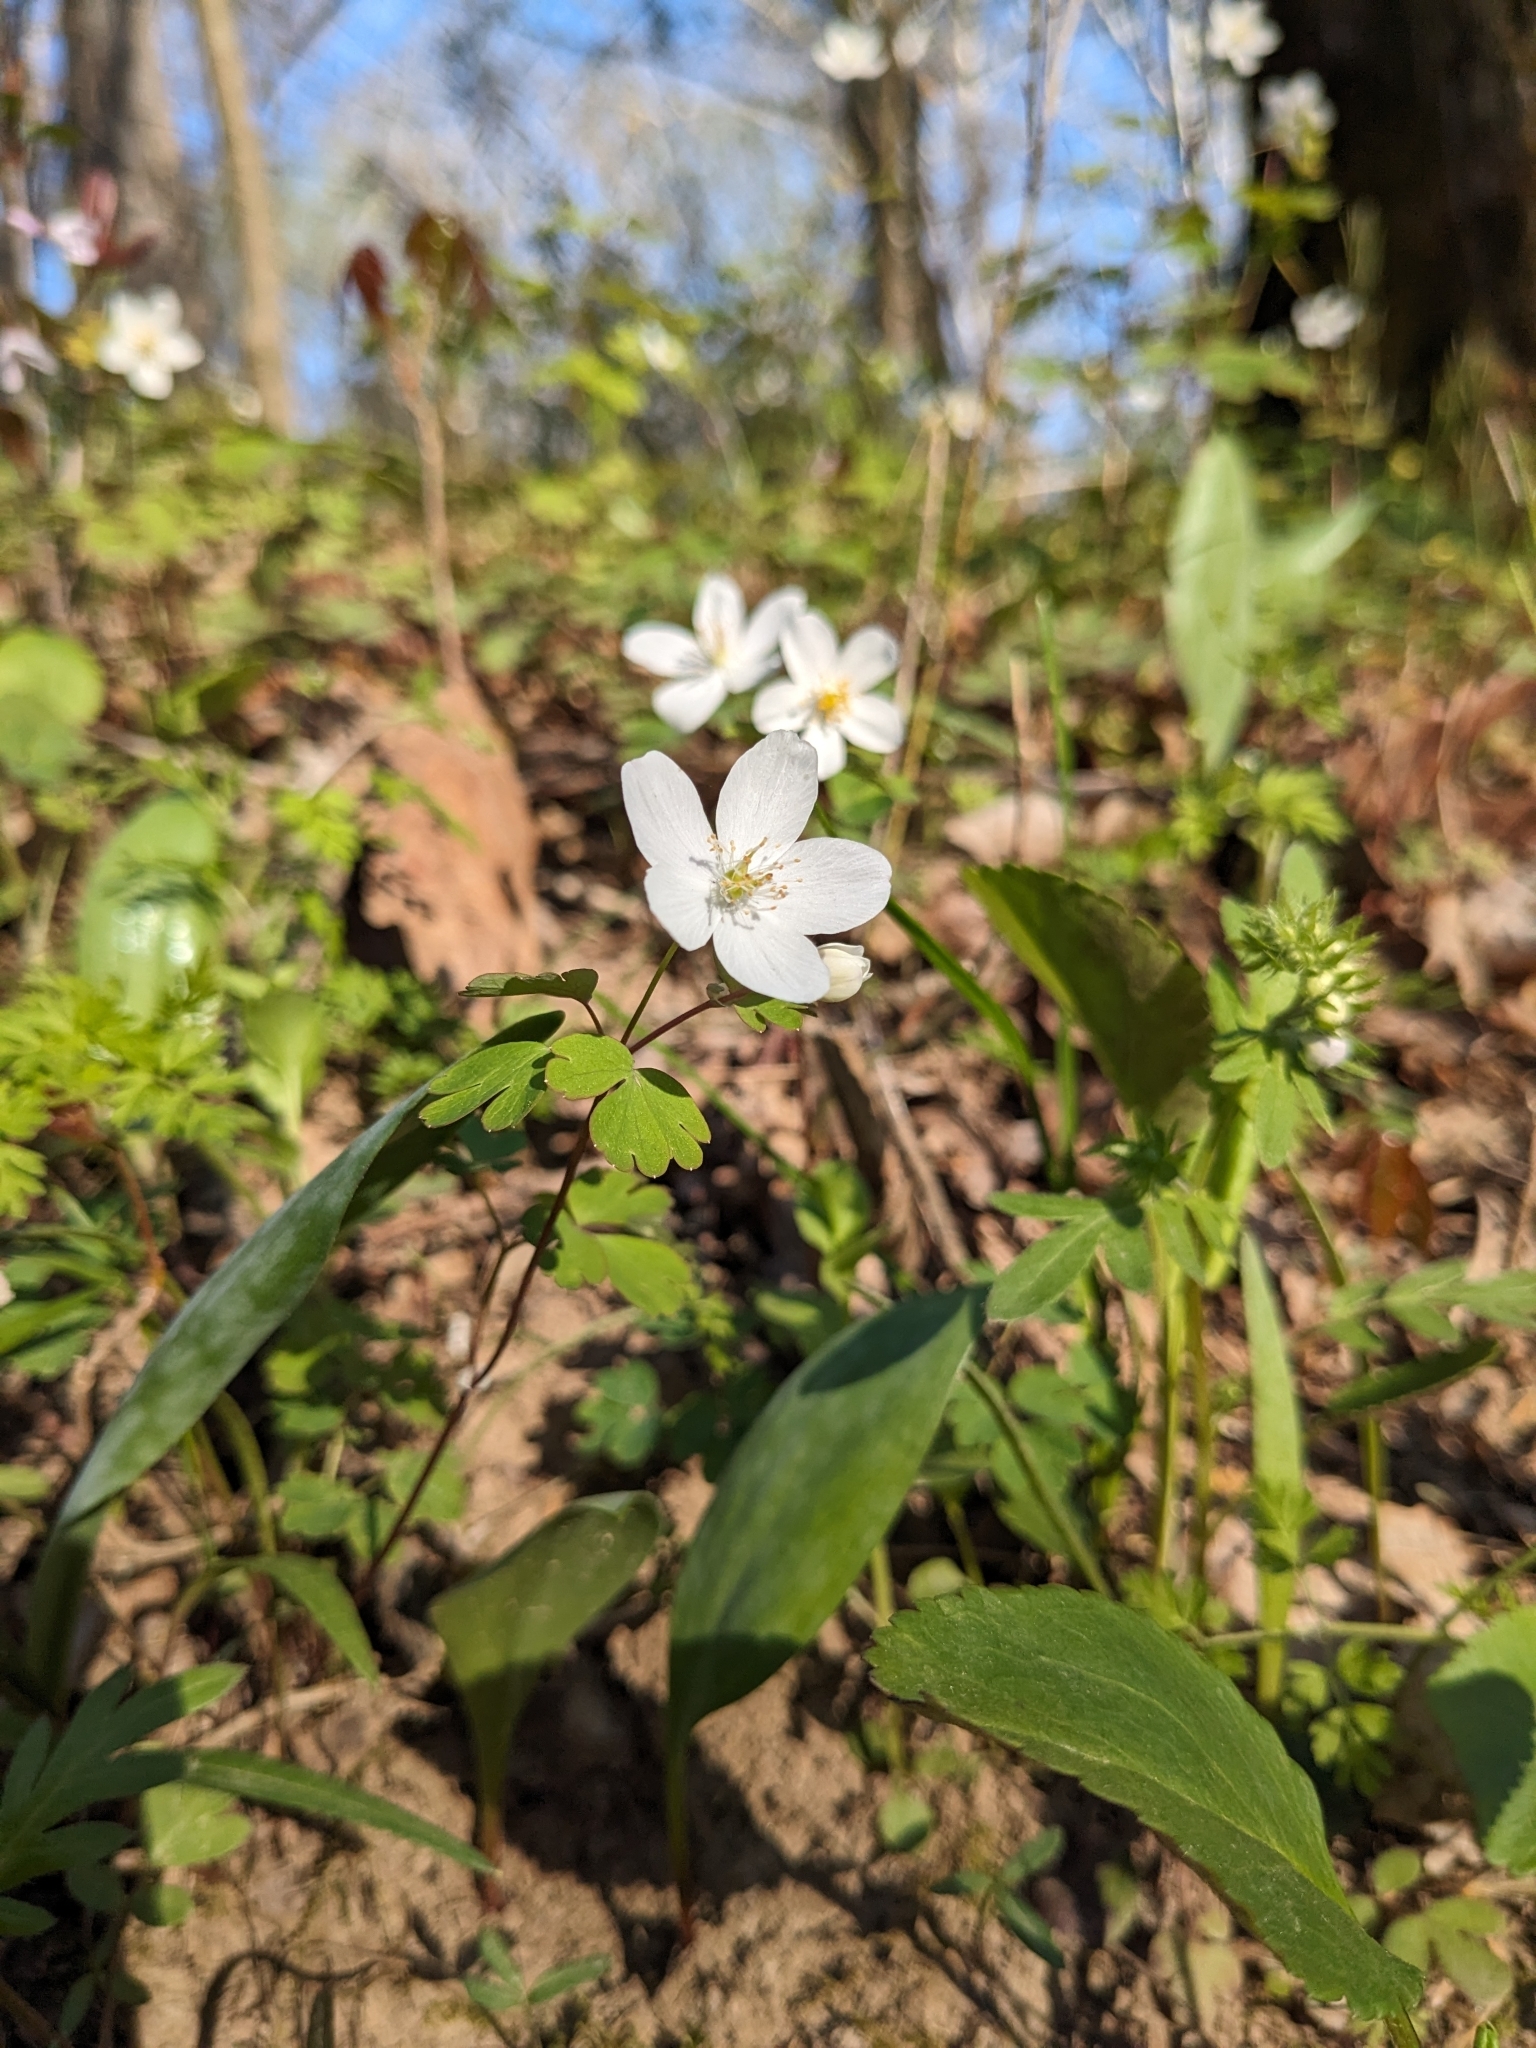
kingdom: Plantae
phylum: Tracheophyta
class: Magnoliopsida
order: Ranunculales
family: Ranunculaceae
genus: Enemion
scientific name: Enemion biternatum
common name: Eastern false rue-anemone
